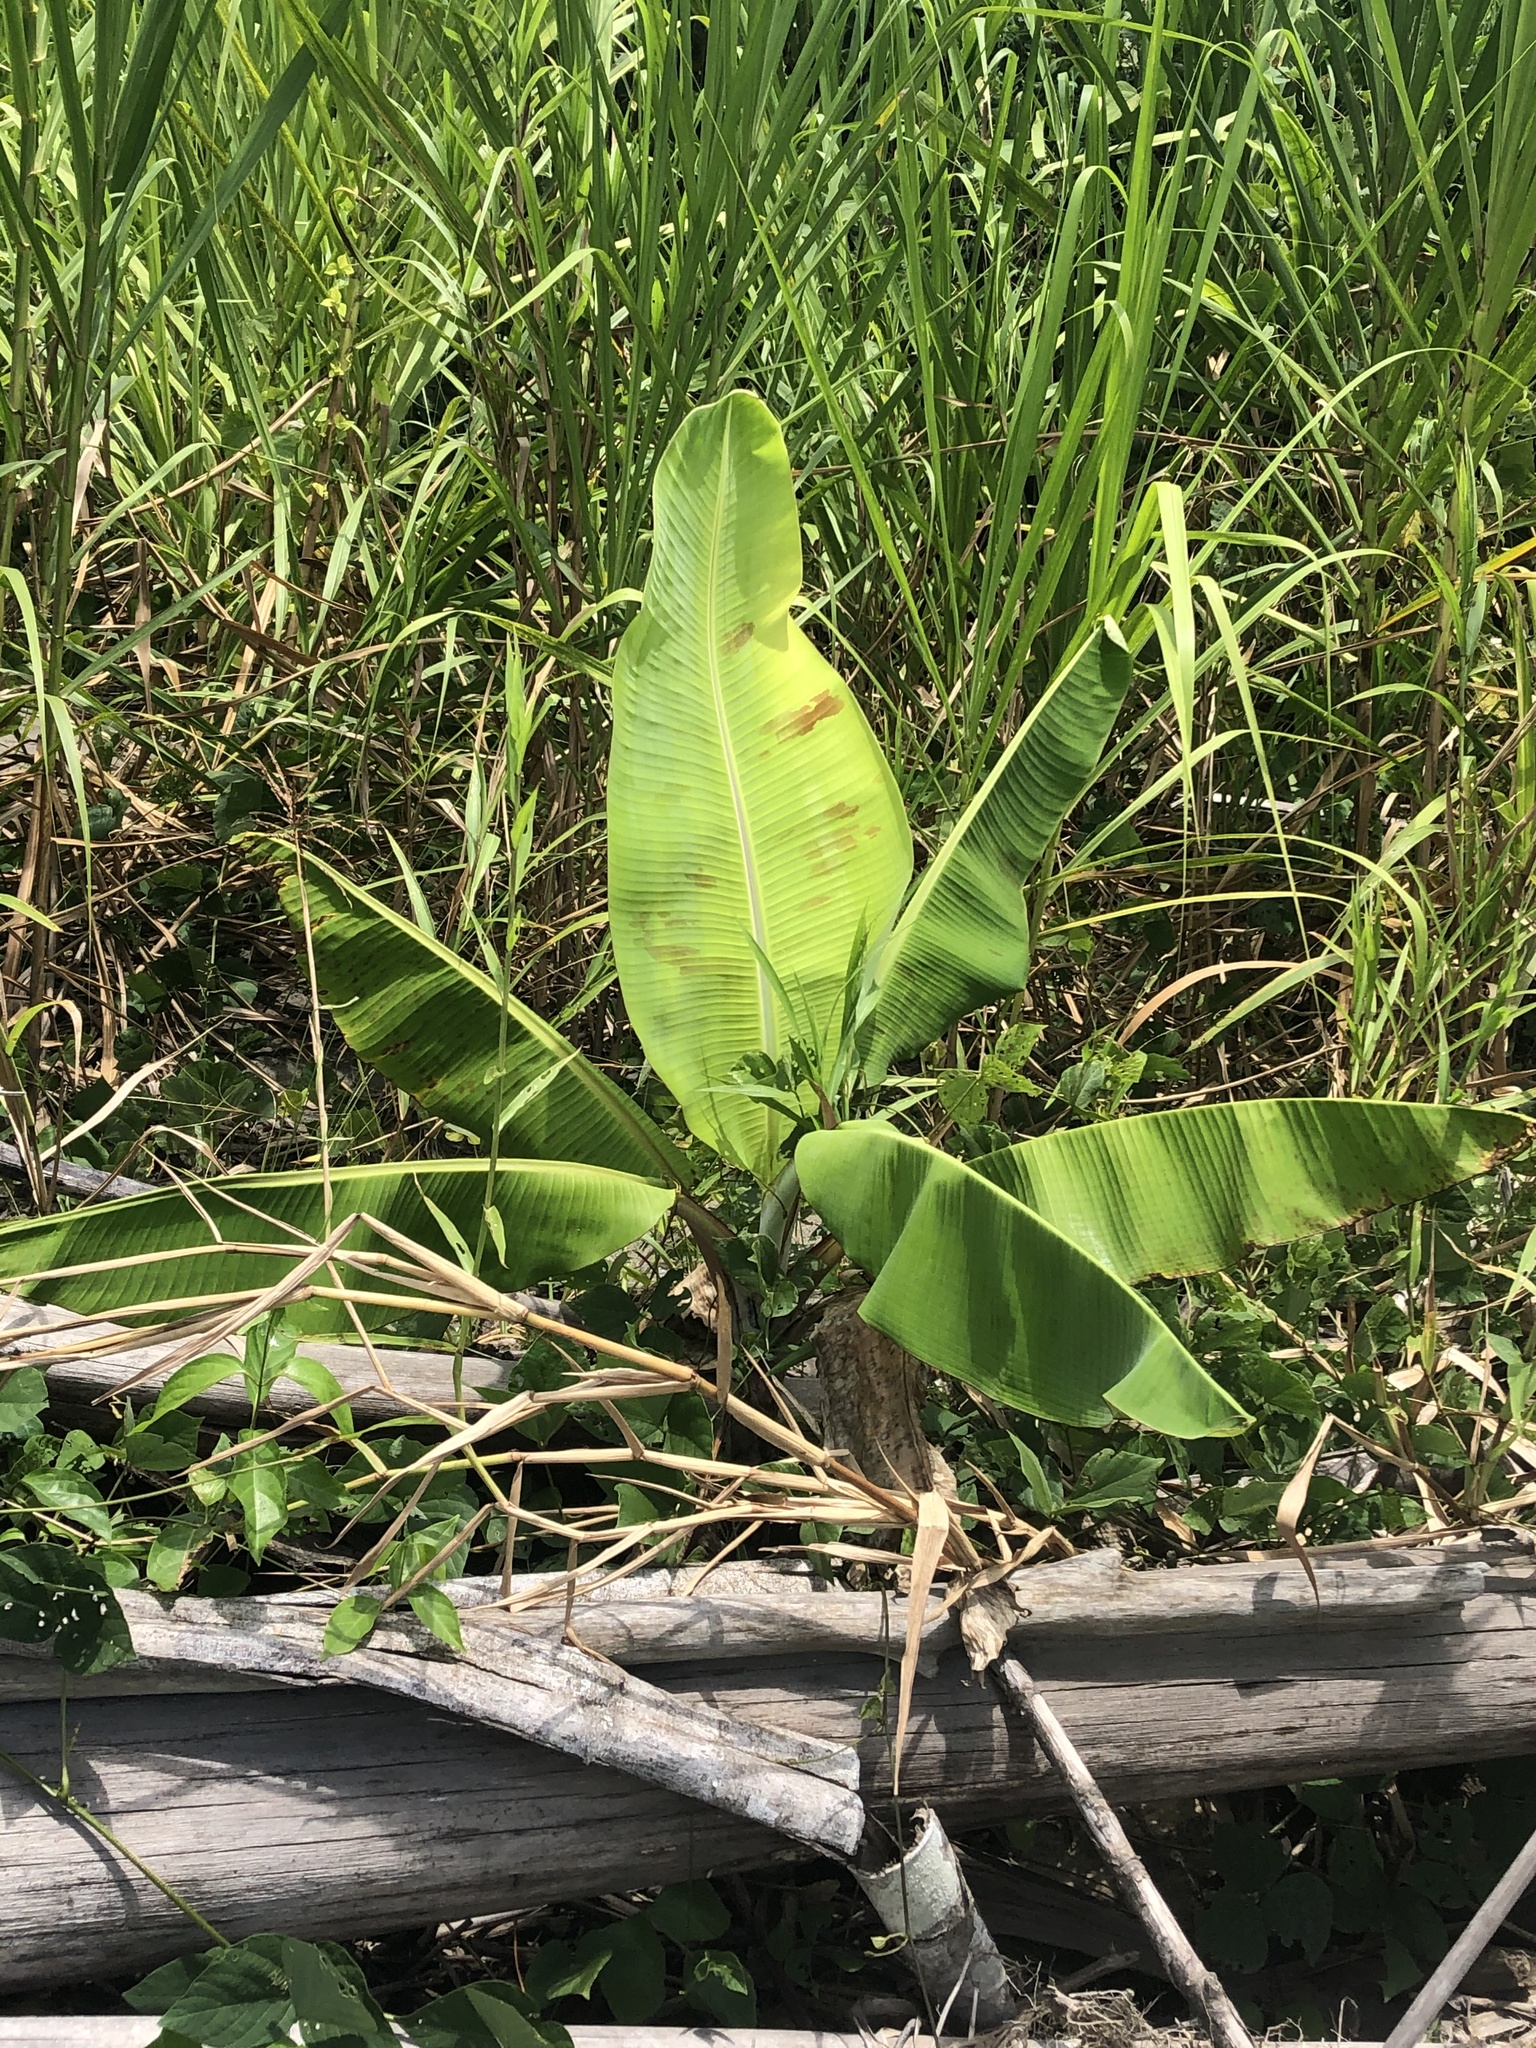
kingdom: Plantae
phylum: Tracheophyta
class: Liliopsida
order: Zingiberales
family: Musaceae
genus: Musa
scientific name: Musa acuminata
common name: Edible banana
